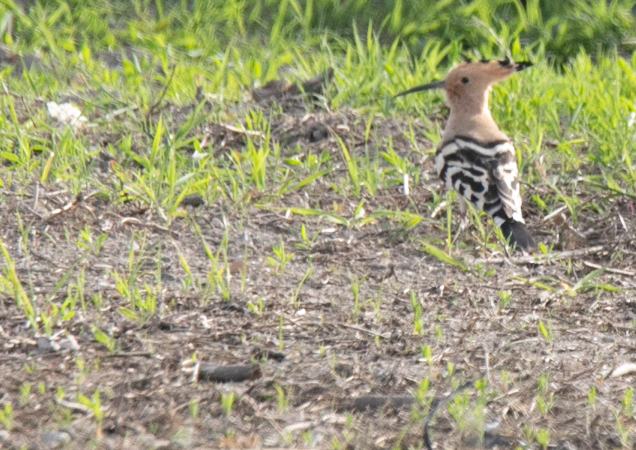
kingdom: Animalia
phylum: Chordata
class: Aves
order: Bucerotiformes
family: Upupidae
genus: Upupa
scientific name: Upupa epops
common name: Eurasian hoopoe
